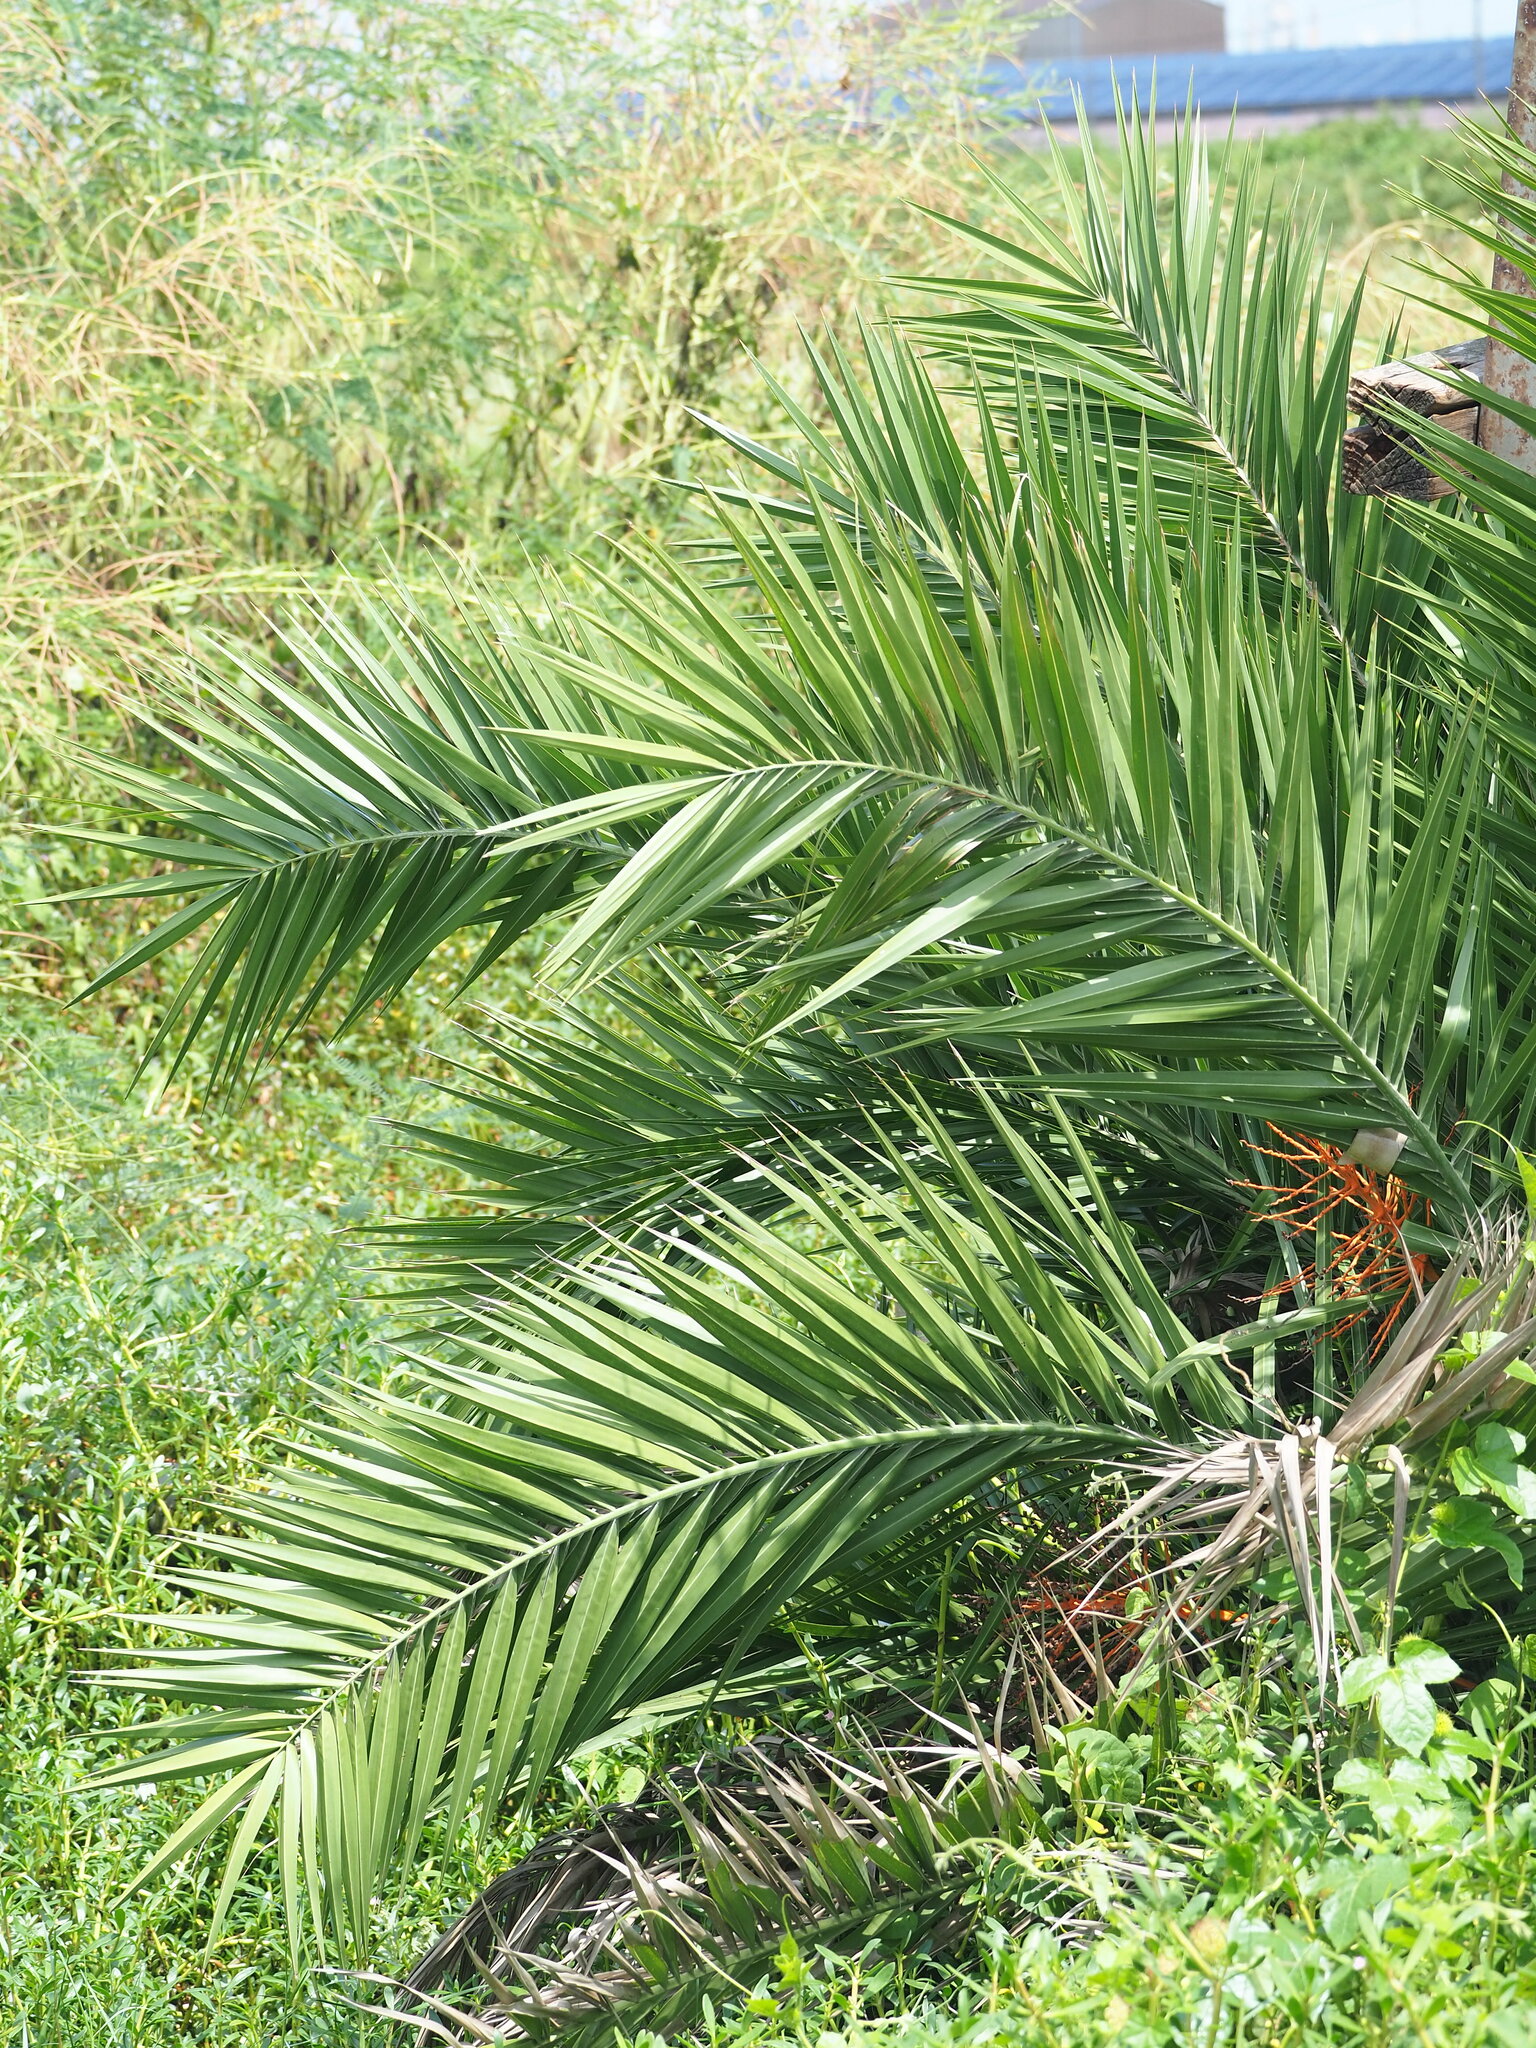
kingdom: Plantae
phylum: Tracheophyta
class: Liliopsida
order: Arecales
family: Arecaceae
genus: Phoenix
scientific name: Phoenix loureiroi
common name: Loureiro's palm
